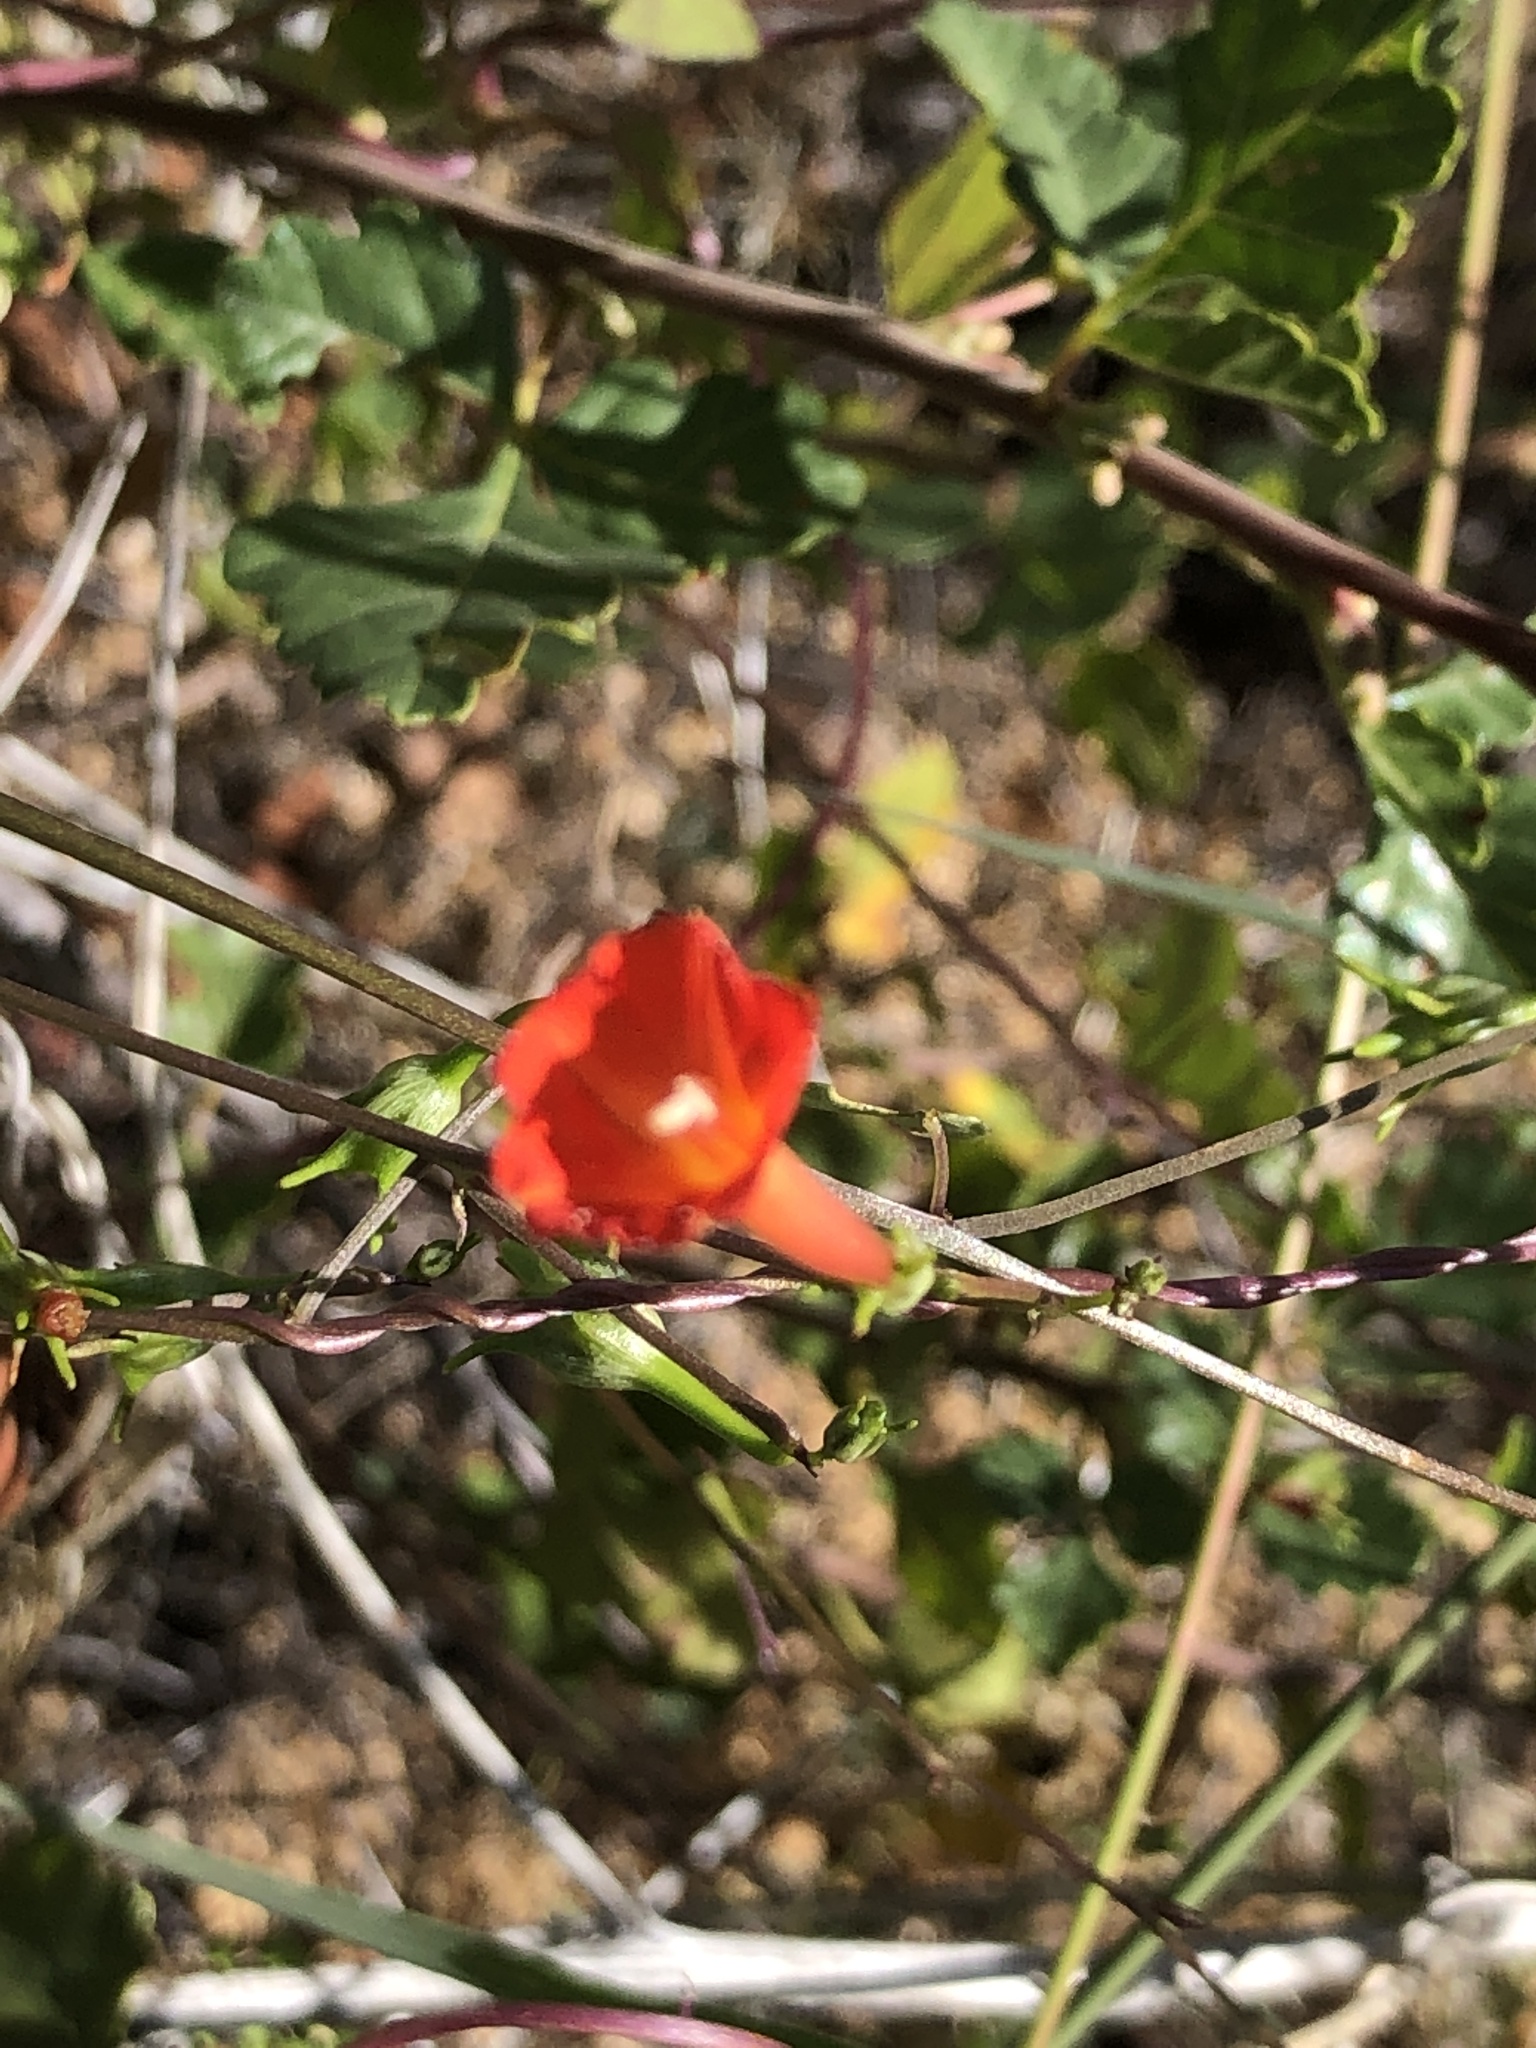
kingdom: Plantae
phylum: Tracheophyta
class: Magnoliopsida
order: Solanales
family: Convolvulaceae
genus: Ipomoea
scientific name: Ipomoea cristulata
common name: Trans-pecos morning-glory
